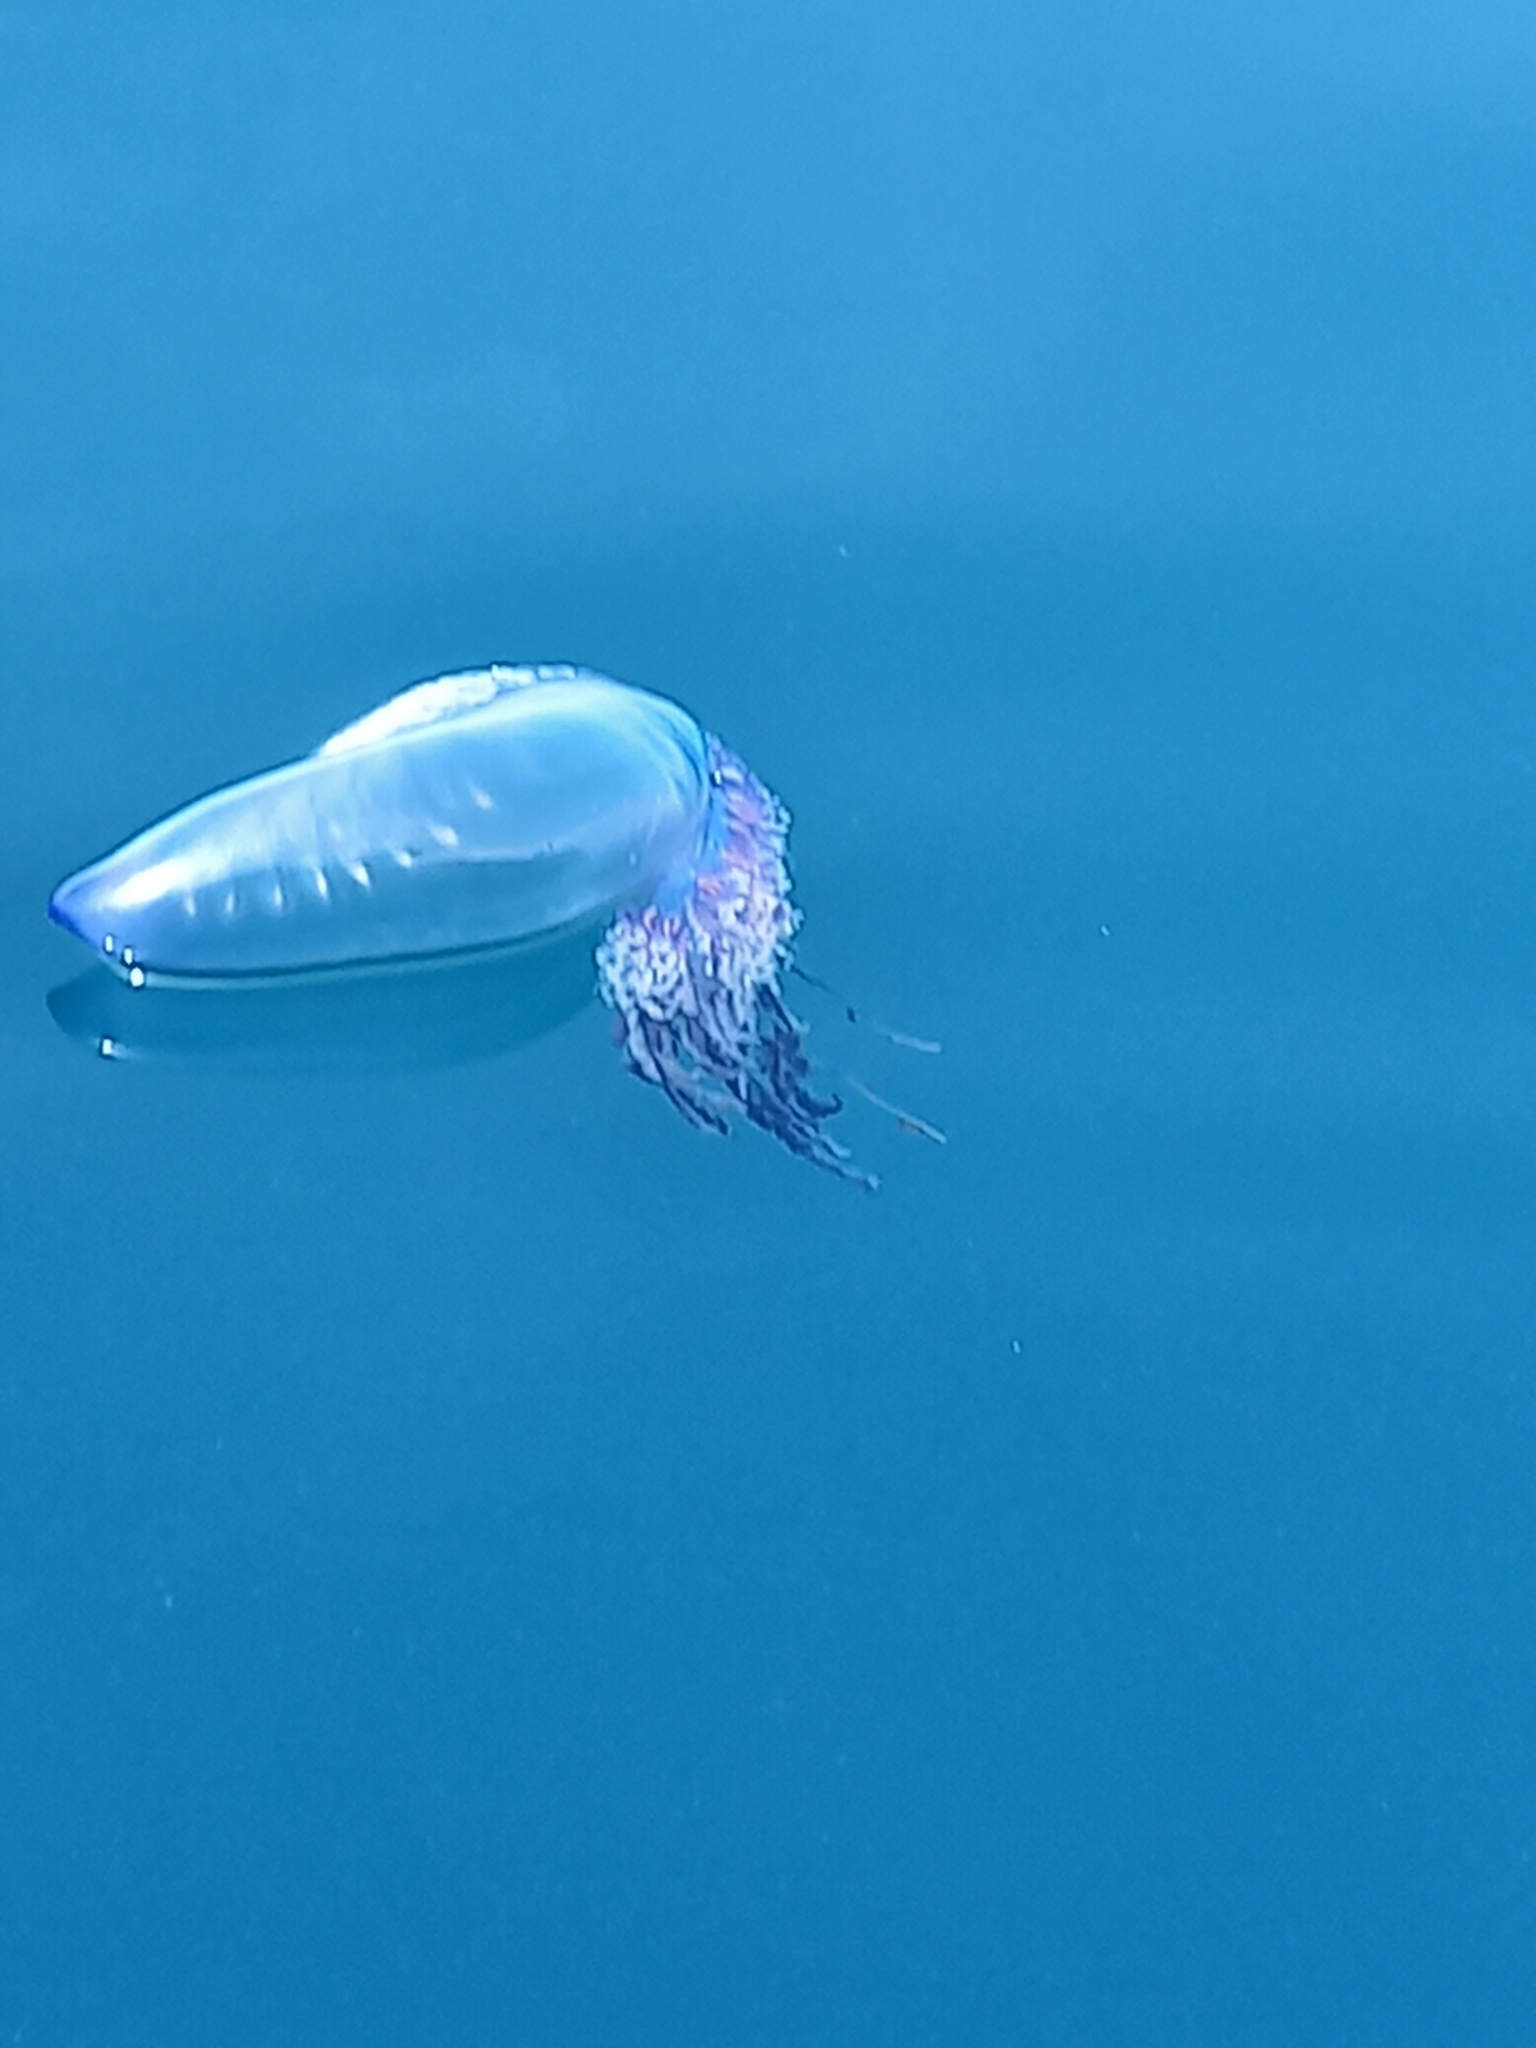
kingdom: Animalia
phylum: Cnidaria
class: Hydrozoa
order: Siphonophorae
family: Physaliidae
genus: Physalia
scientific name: Physalia physalis
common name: Portuguese man-of-war
